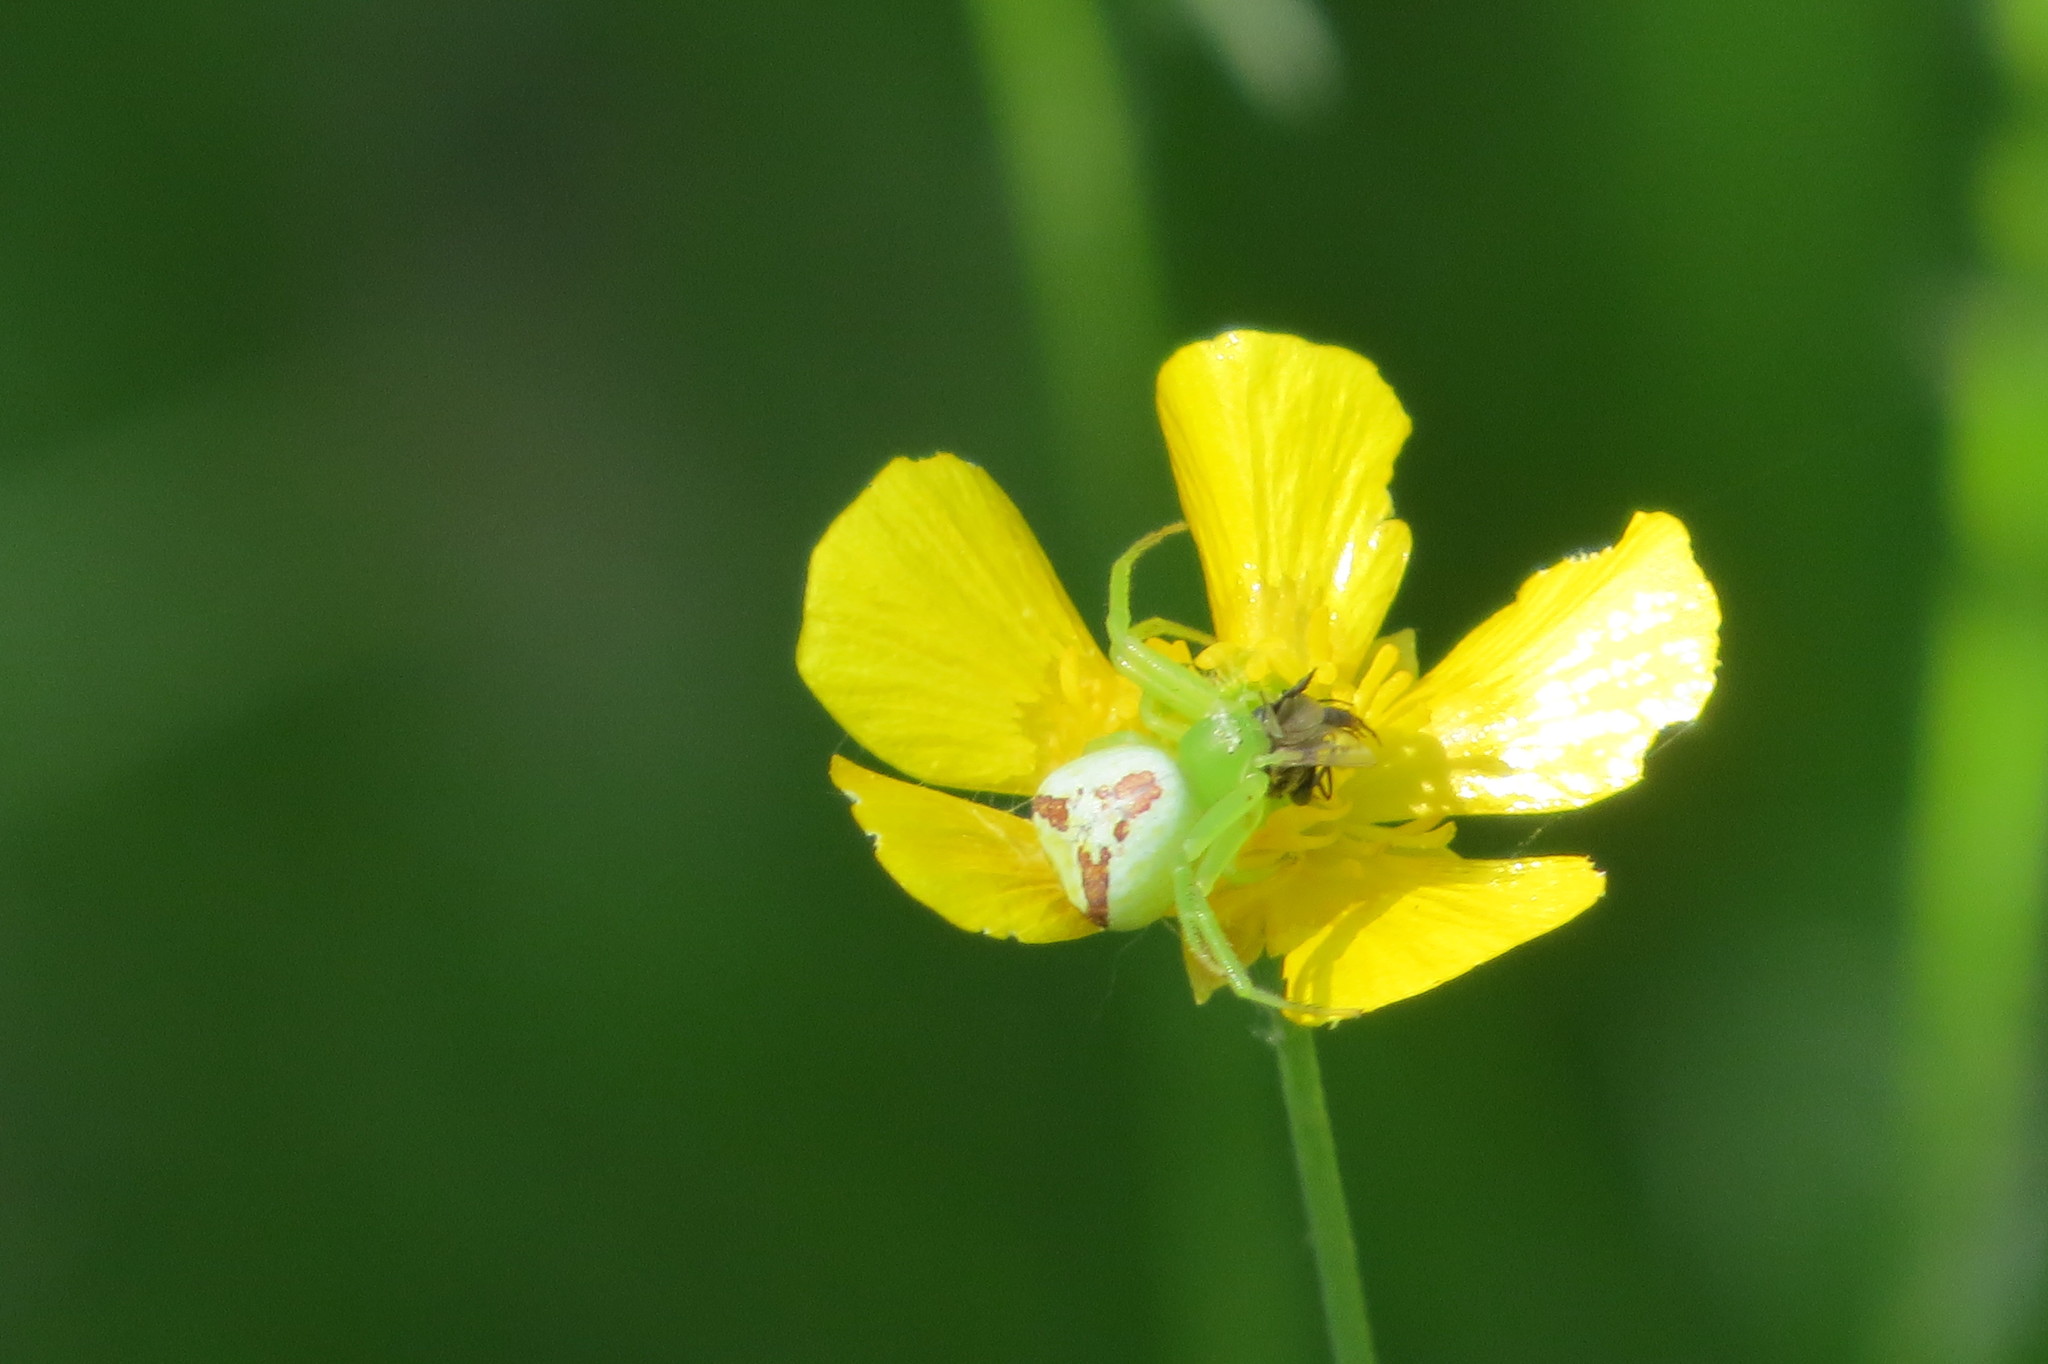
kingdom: Animalia
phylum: Arthropoda
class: Arachnida
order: Araneae
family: Thomisidae
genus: Ebrechtella
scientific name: Ebrechtella tricuspidata
